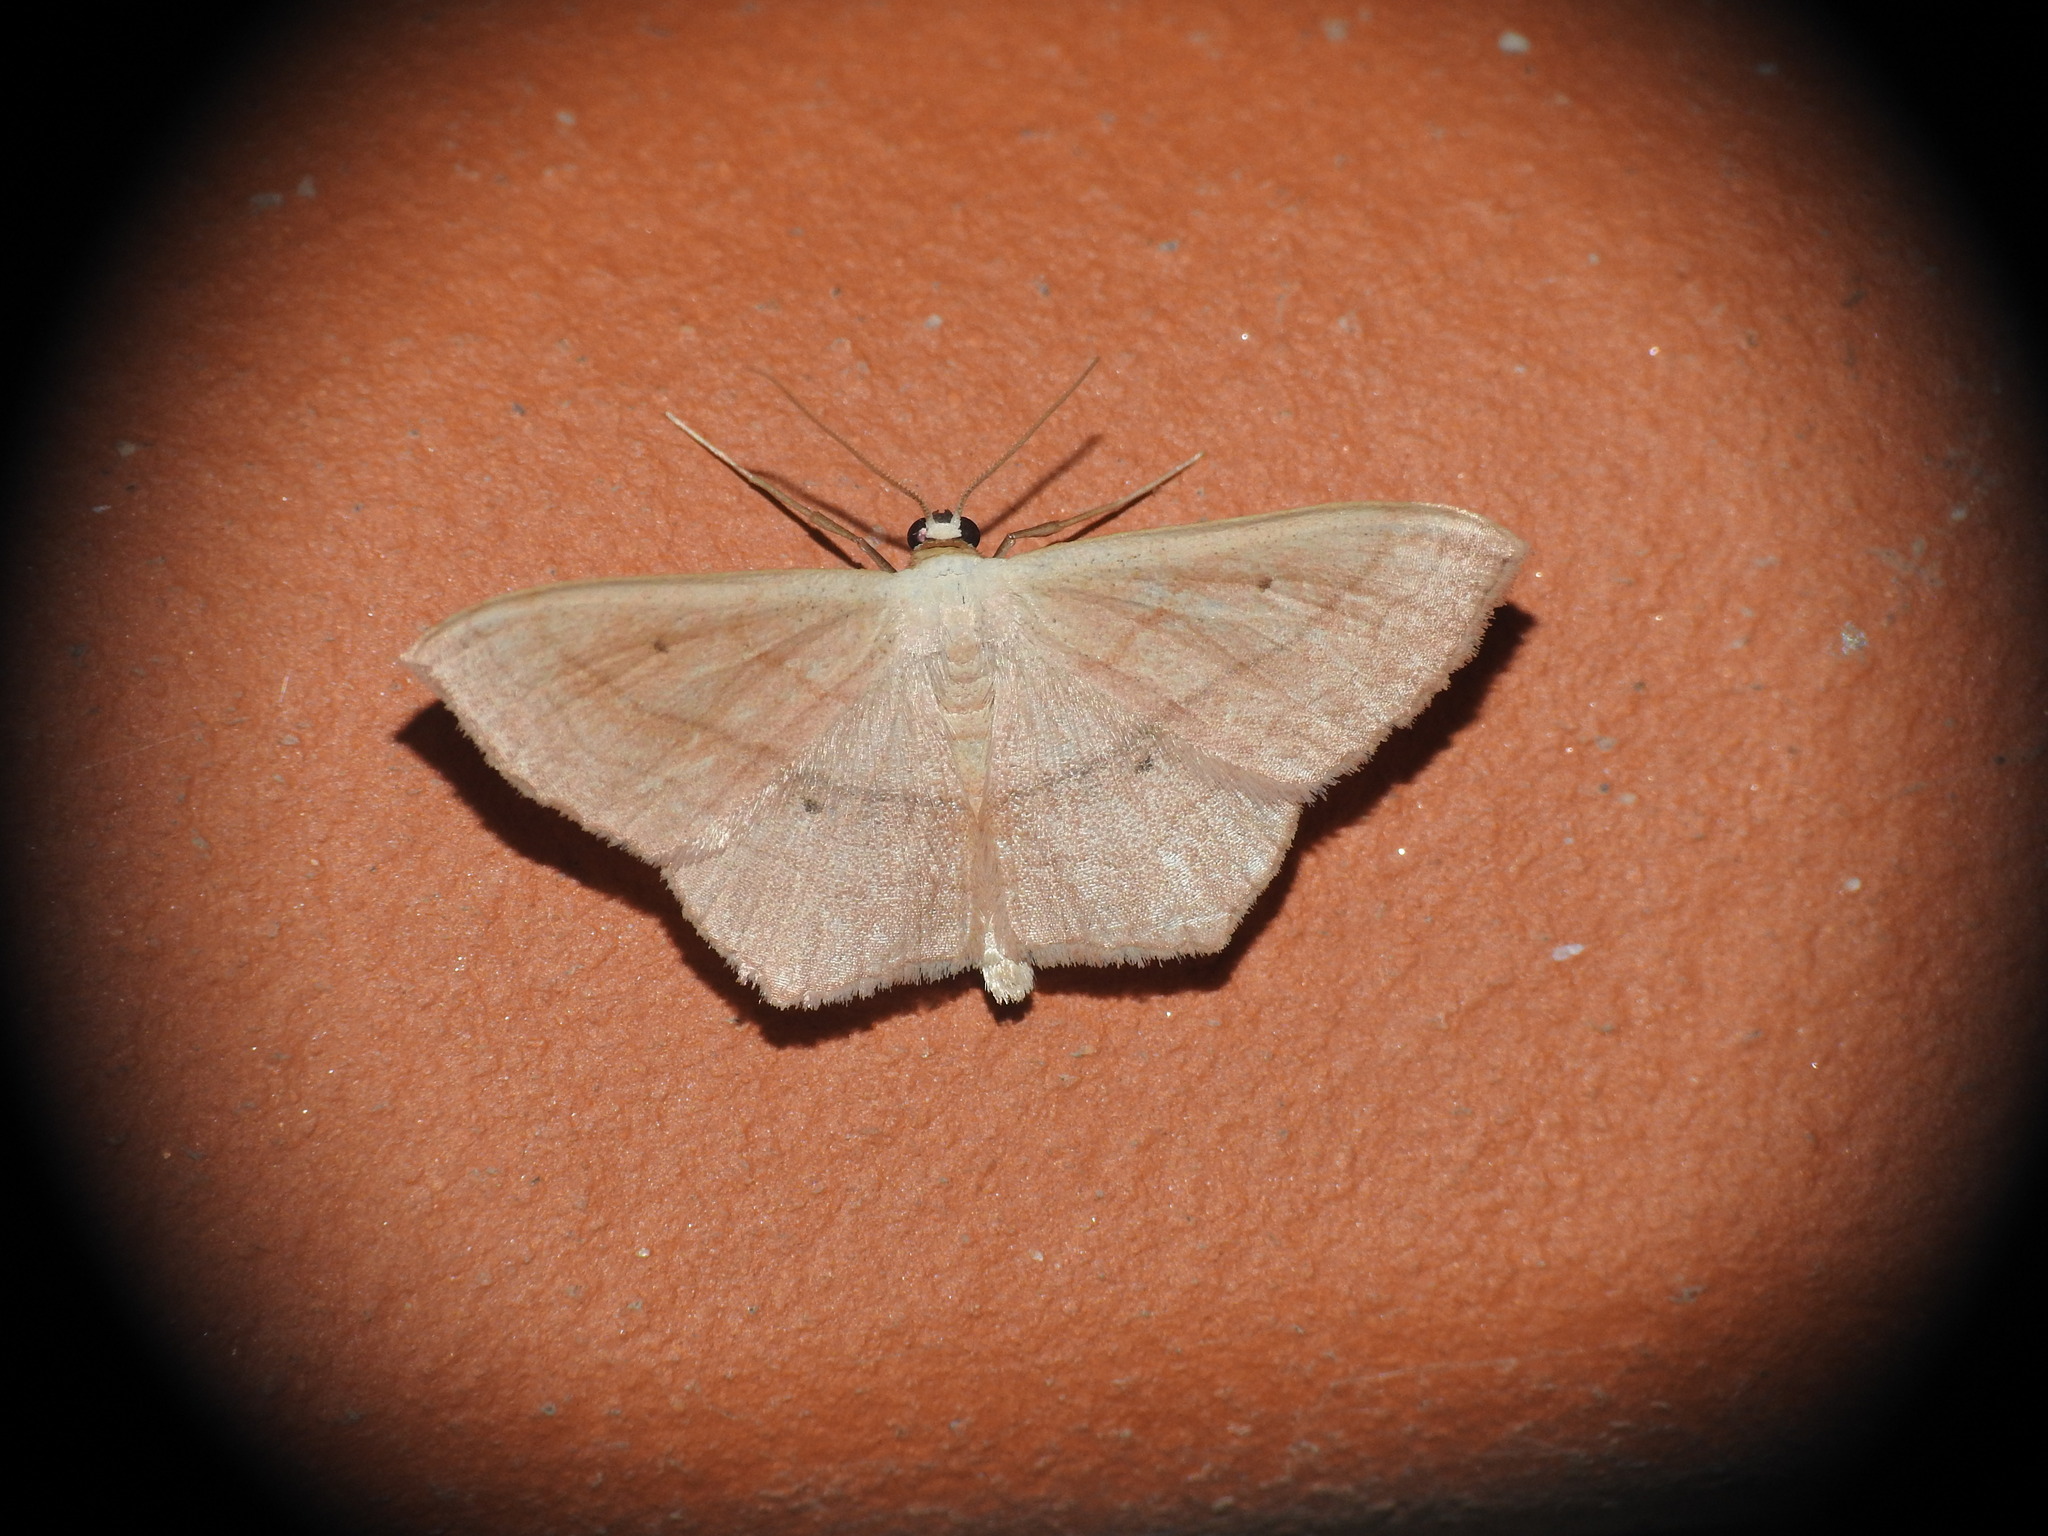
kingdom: Animalia
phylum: Arthropoda
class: Insecta
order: Lepidoptera
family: Geometridae
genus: Scopula
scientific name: Scopula imitaria
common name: Small blood-vein
